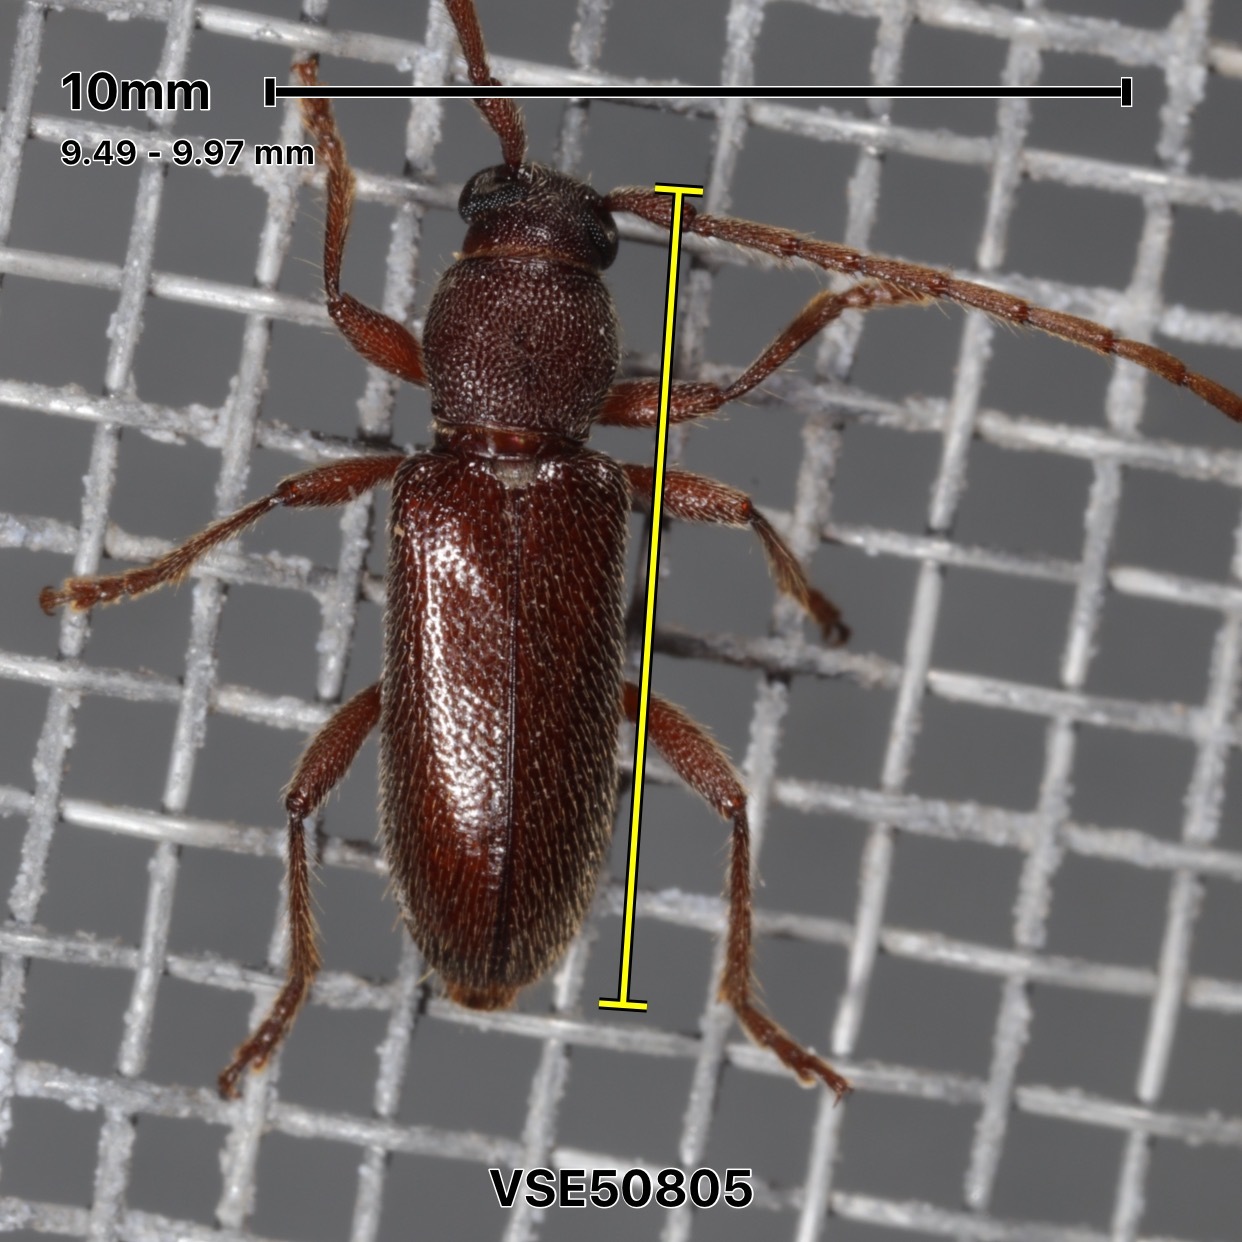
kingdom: Animalia
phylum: Arthropoda
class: Insecta
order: Coleoptera
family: Cerambycidae
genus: Anelaphus
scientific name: Anelaphus moestus
